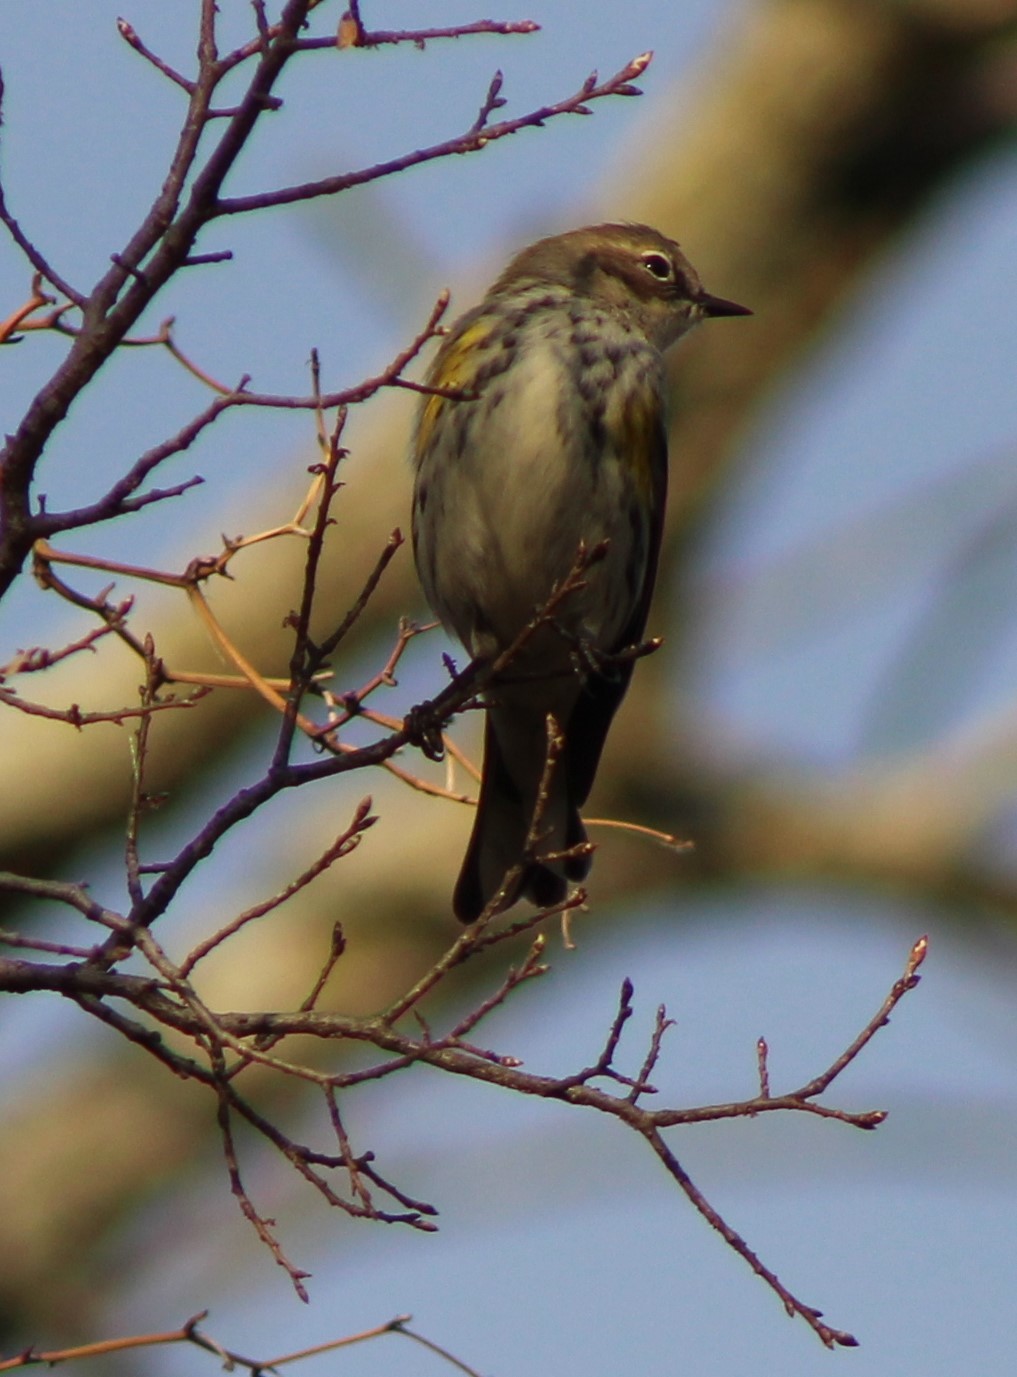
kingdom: Animalia
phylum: Chordata
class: Aves
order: Passeriformes
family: Parulidae
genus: Setophaga
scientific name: Setophaga coronata
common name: Myrtle warbler
